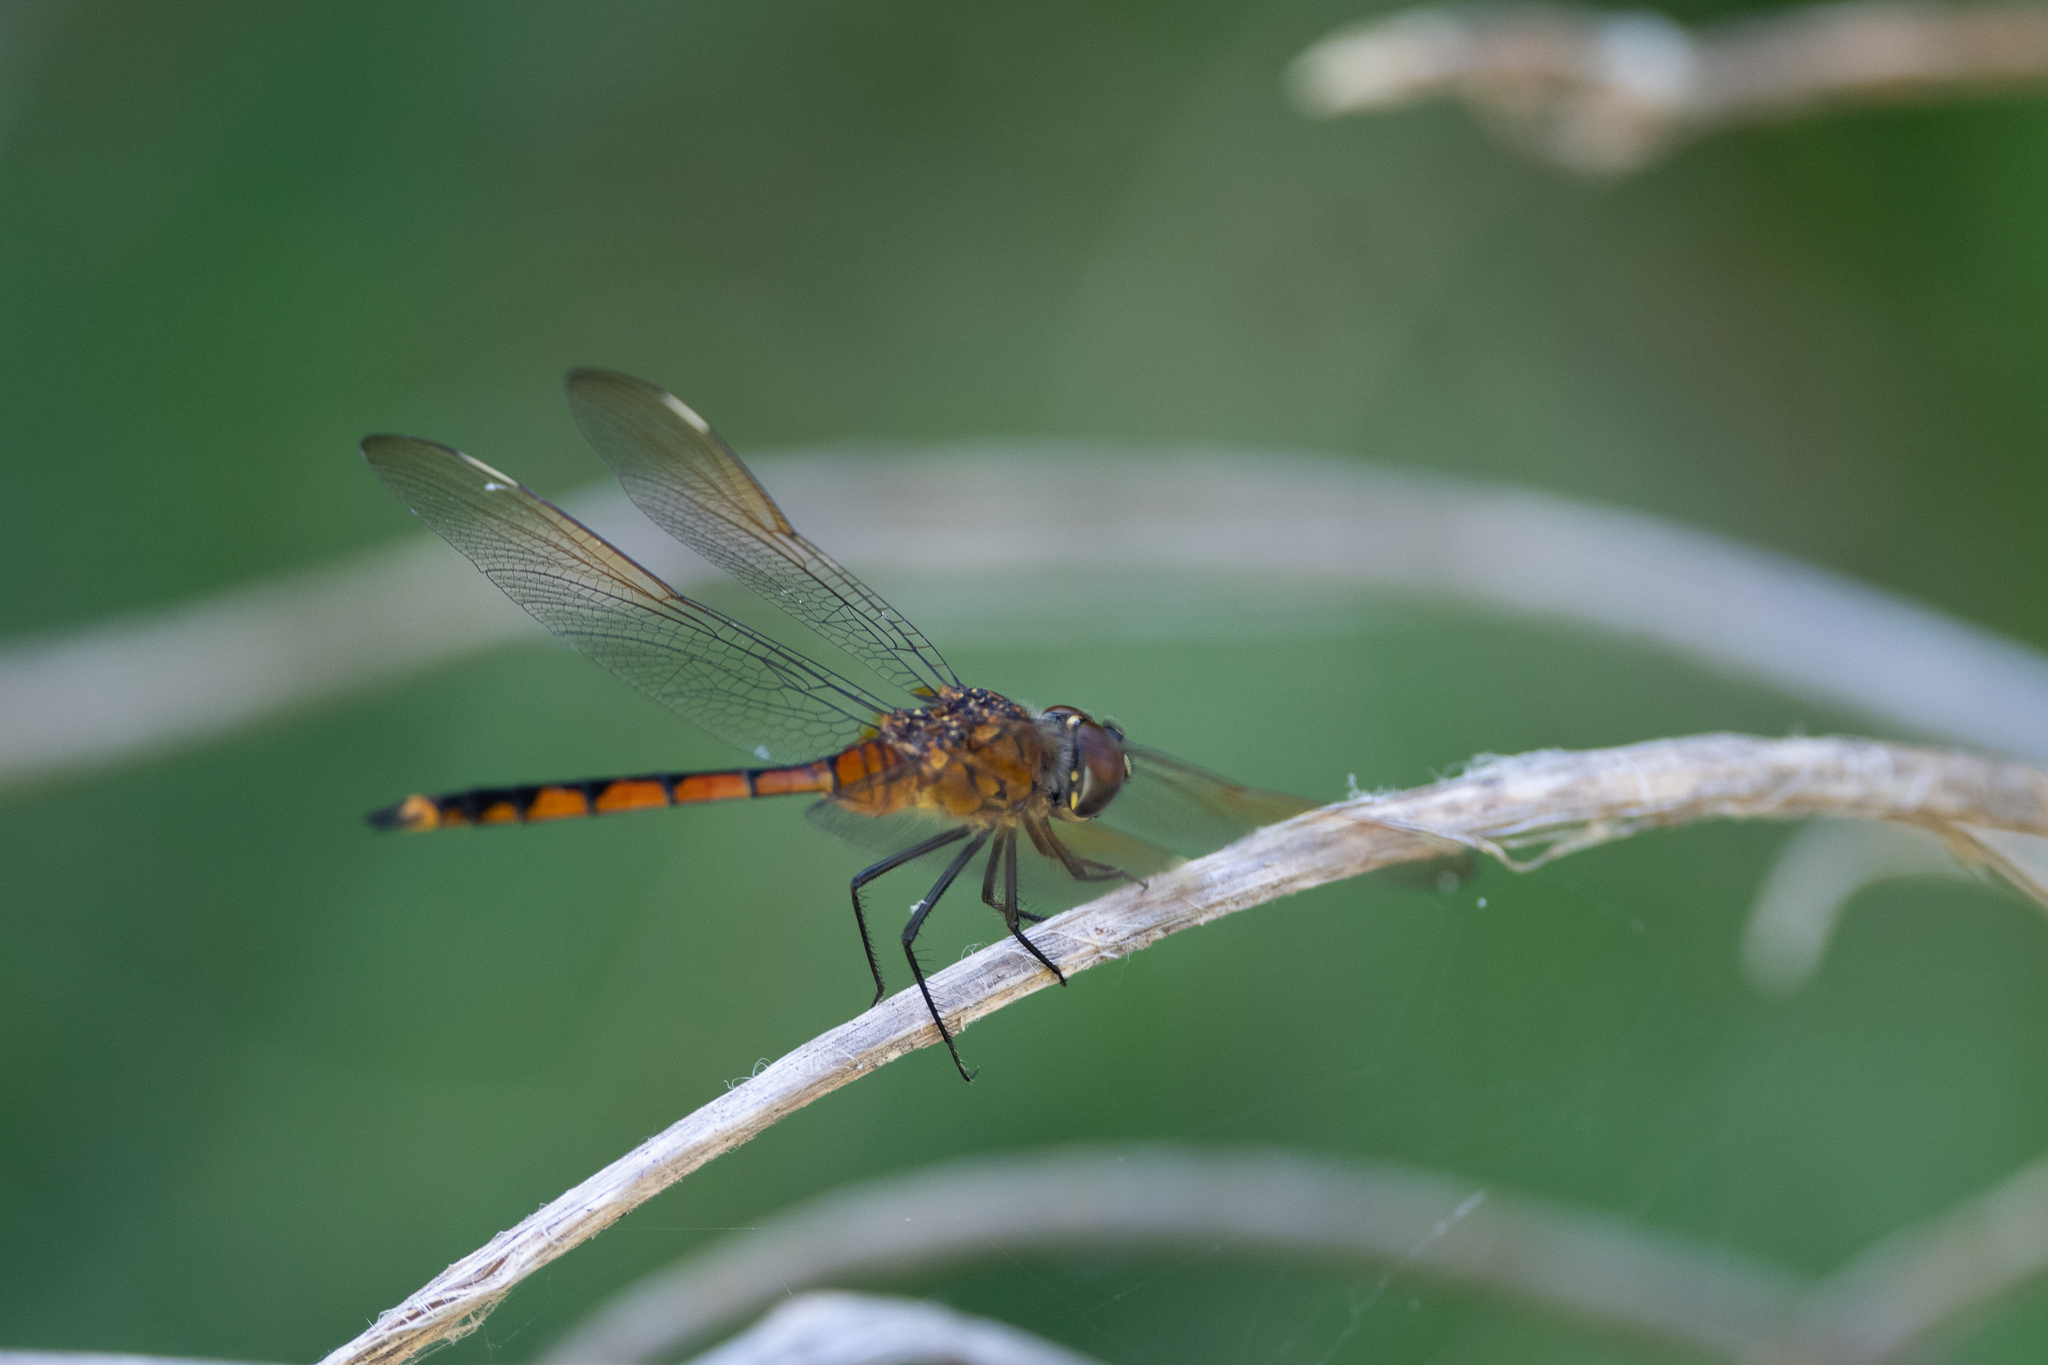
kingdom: Animalia
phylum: Arthropoda
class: Insecta
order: Odonata
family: Libellulidae
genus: Brachymesia
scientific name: Brachymesia gravida
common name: Four-spotted pennant
